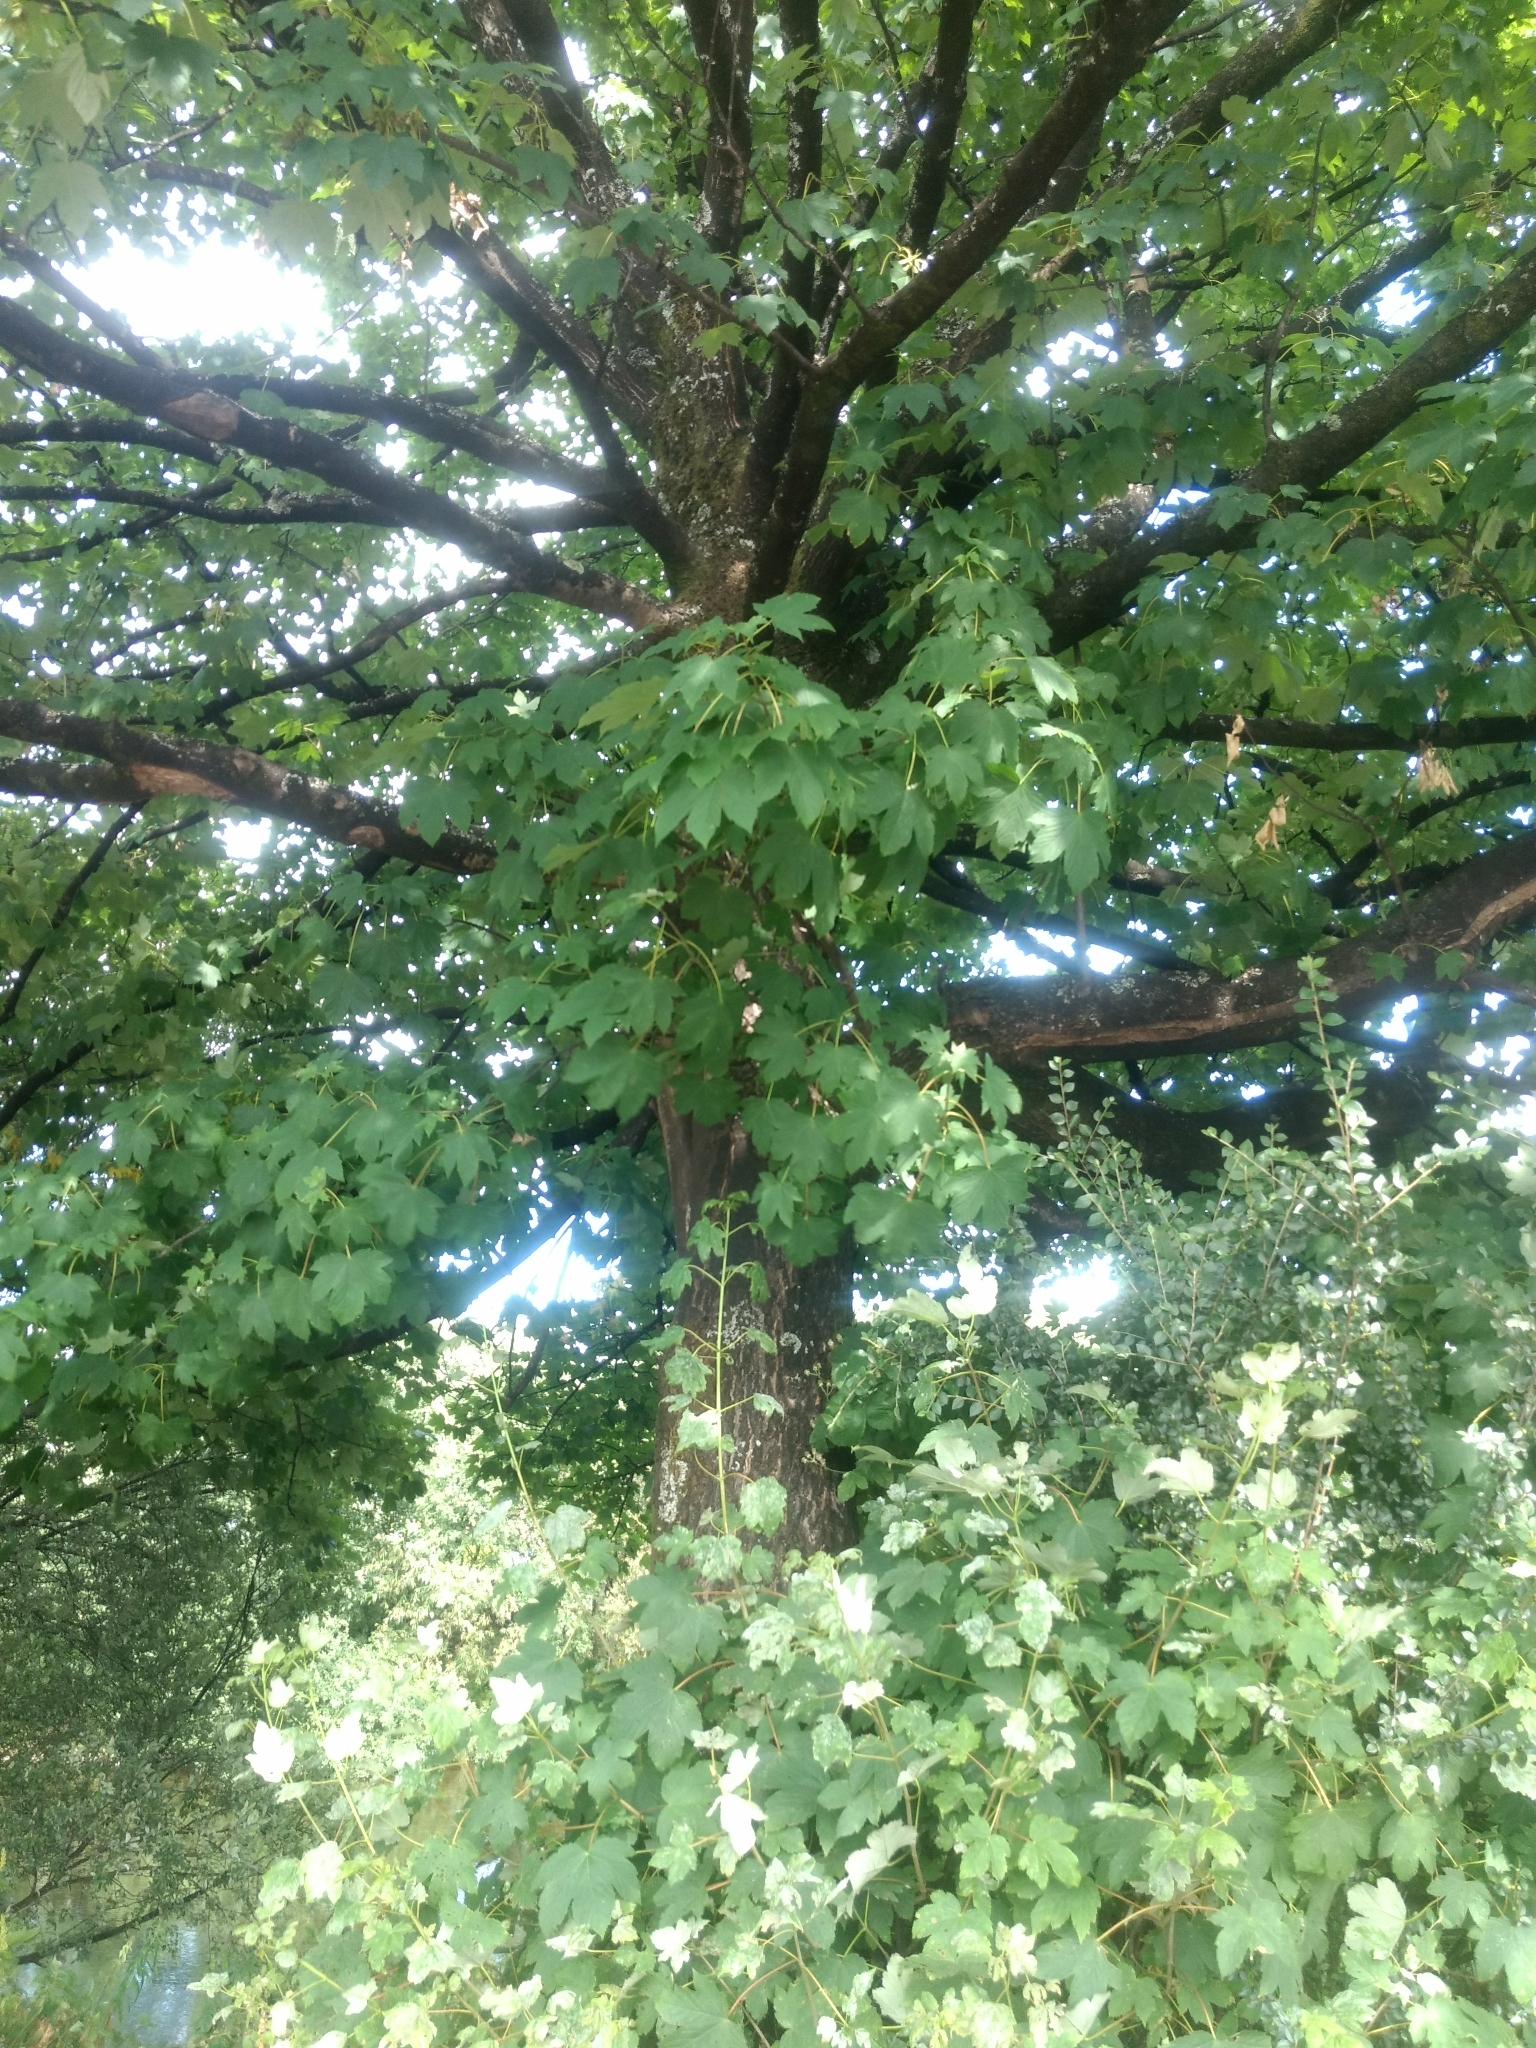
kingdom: Plantae
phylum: Tracheophyta
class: Magnoliopsida
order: Sapindales
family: Sapindaceae
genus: Acer
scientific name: Acer pseudoplatanus
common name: Sycamore
